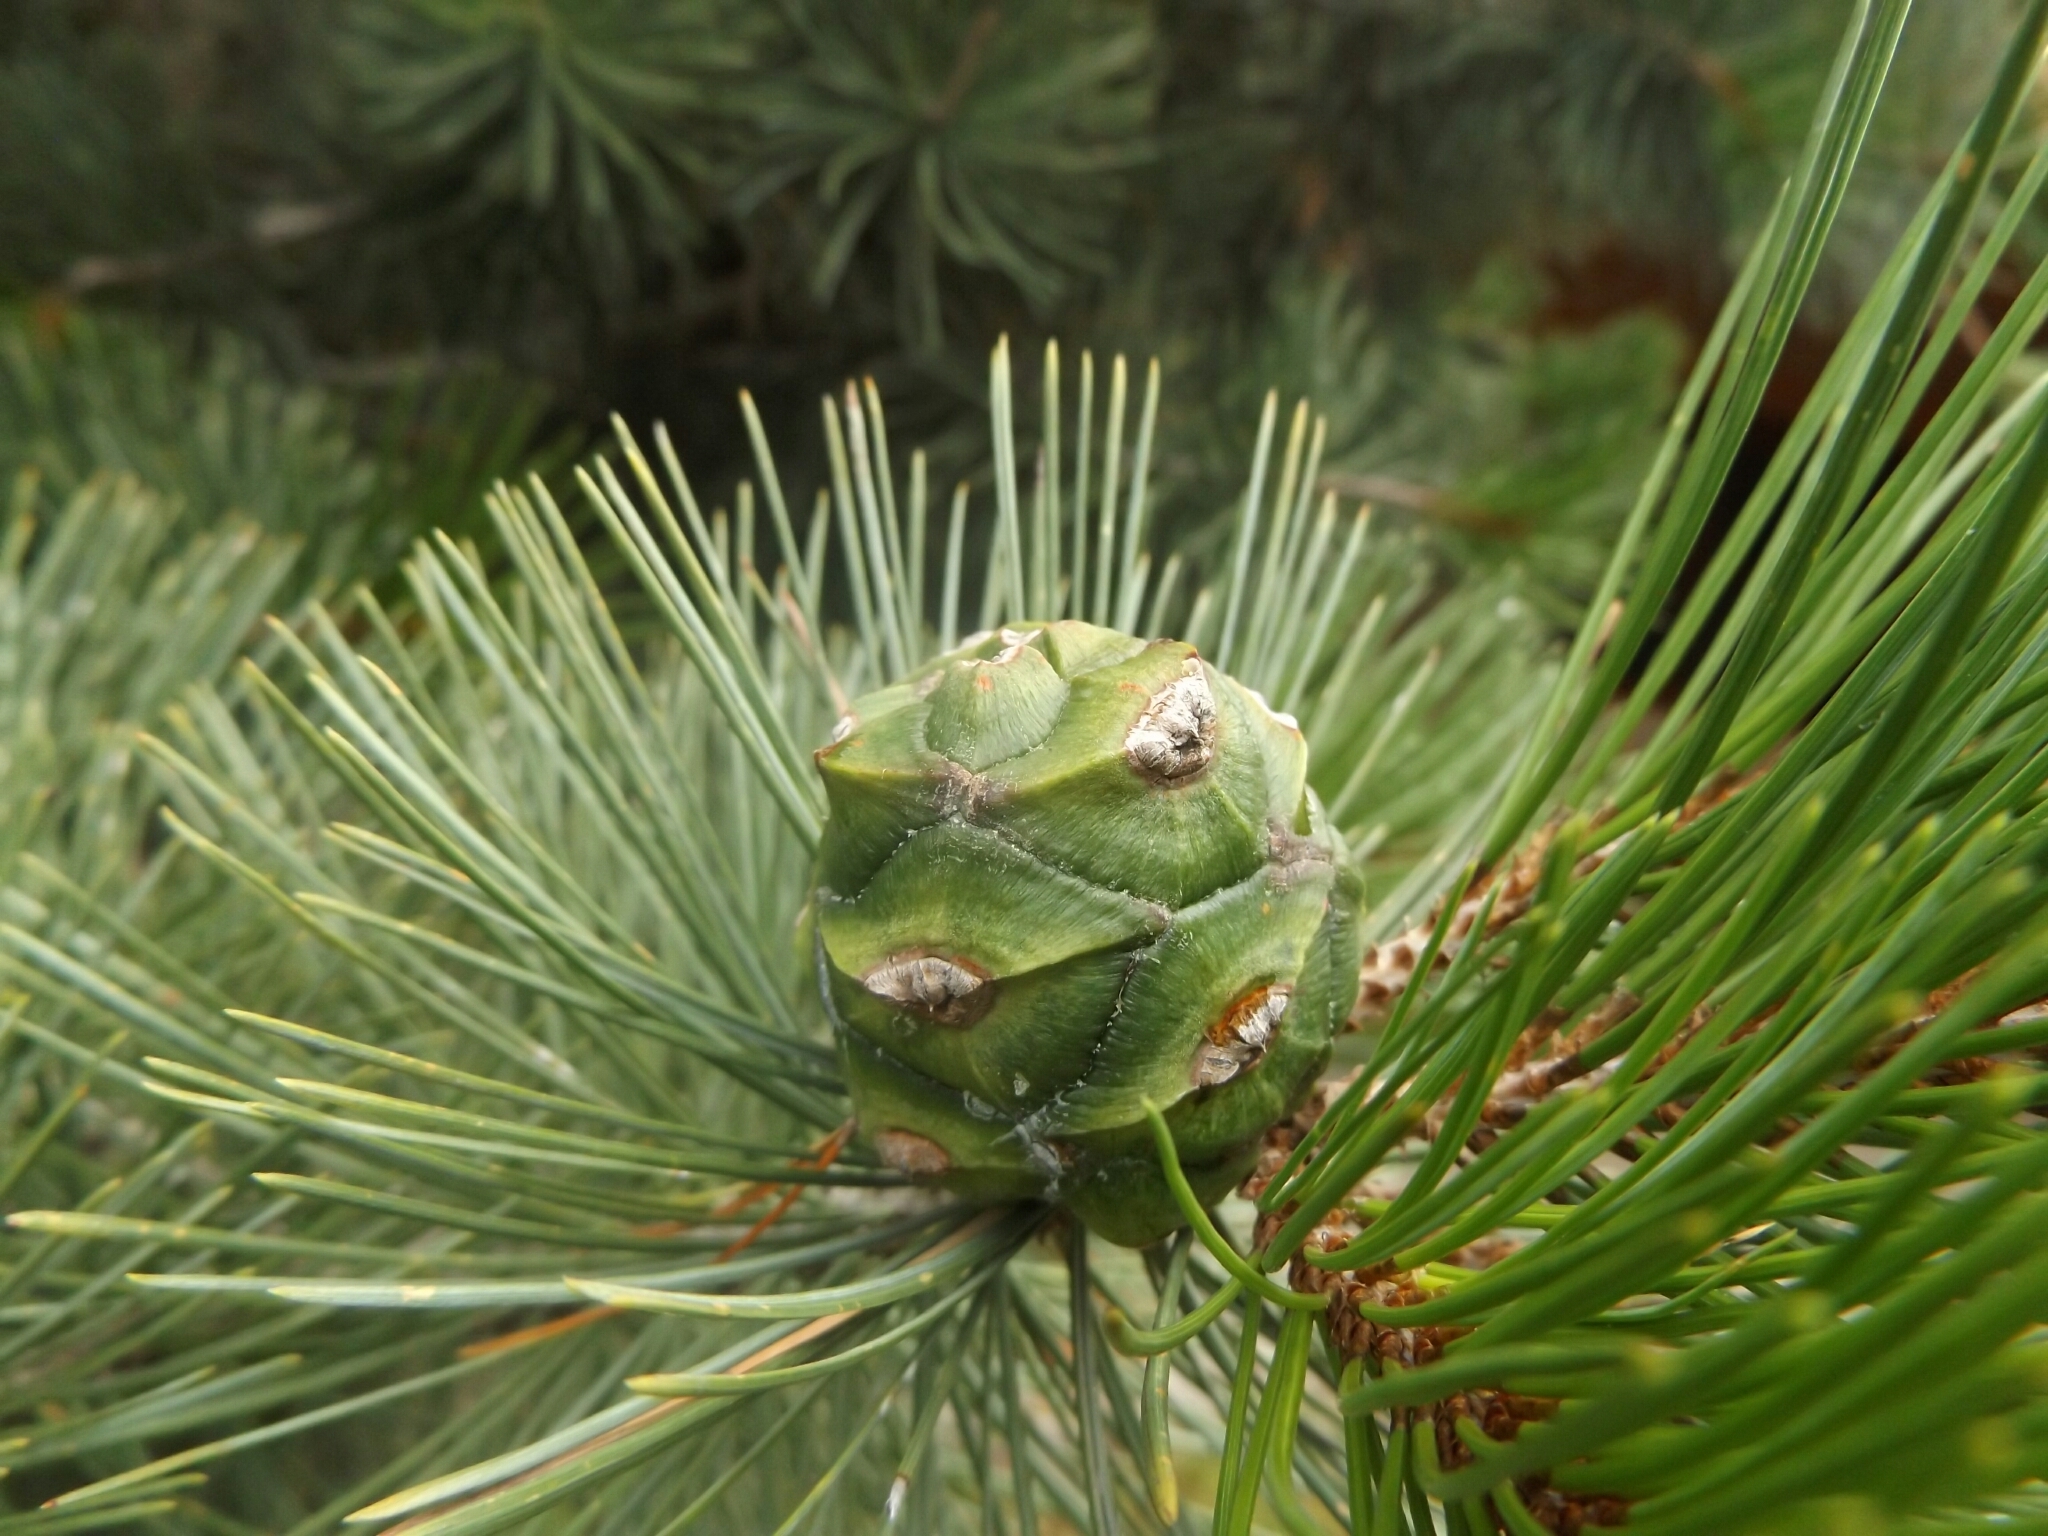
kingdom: Plantae
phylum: Tracheophyta
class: Pinopsida
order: Pinales
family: Pinaceae
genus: Pinus
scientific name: Pinus cembroides
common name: Mexican nut pine
